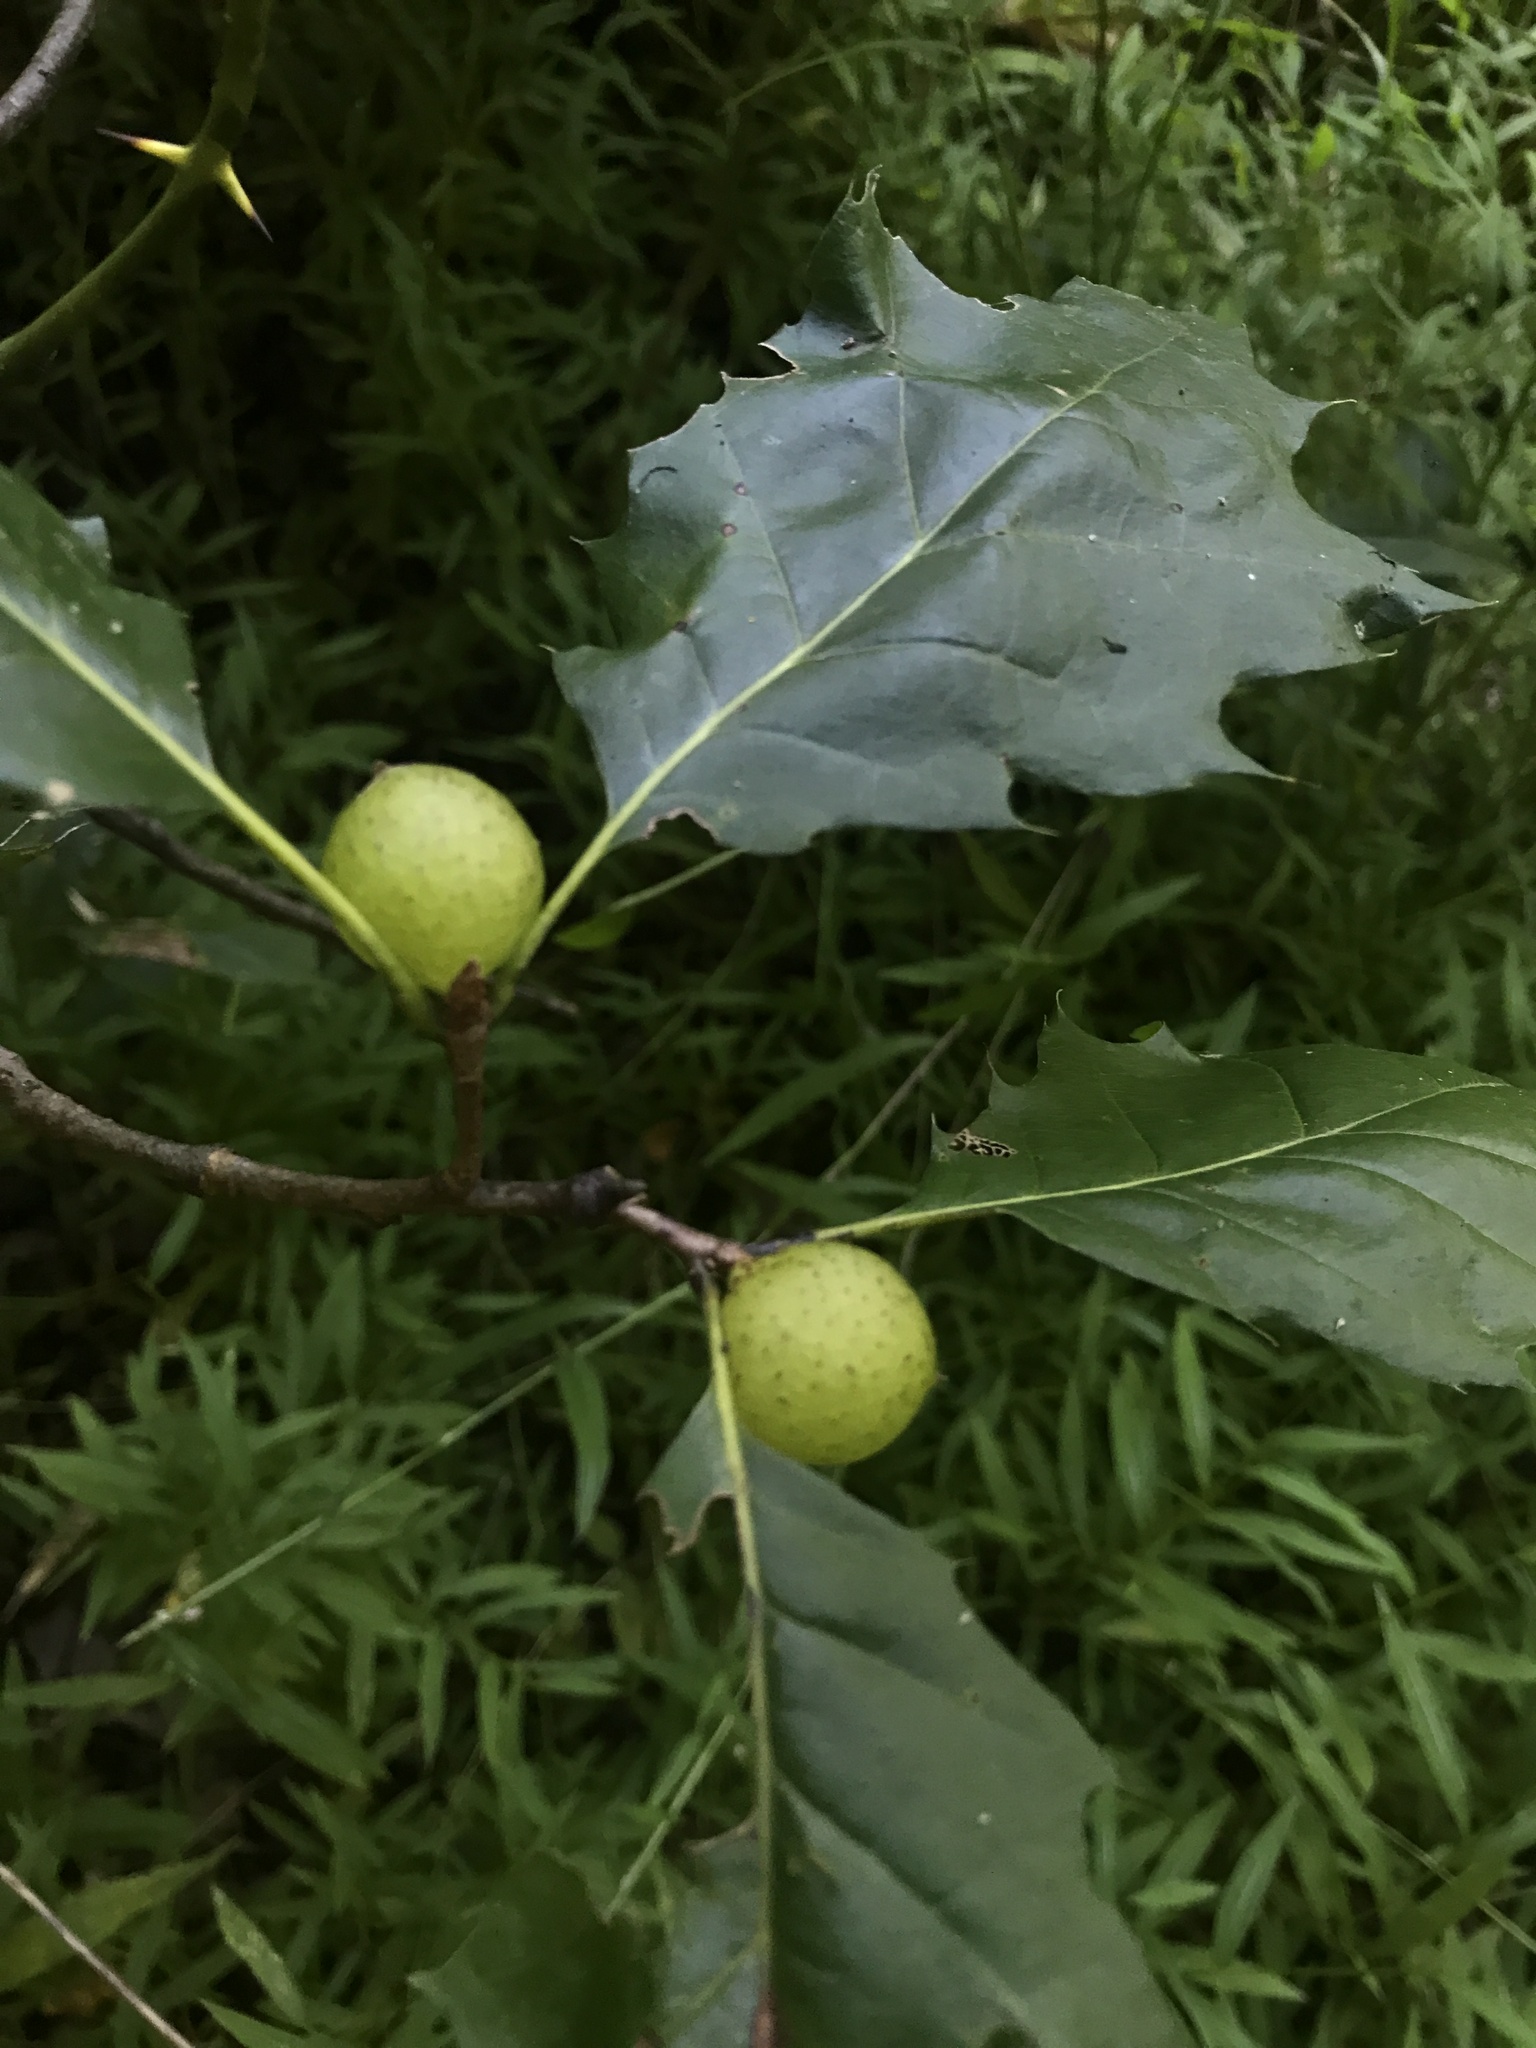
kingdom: Animalia
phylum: Arthropoda
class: Insecta
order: Hymenoptera
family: Cynipidae
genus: Amphibolips
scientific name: Amphibolips
